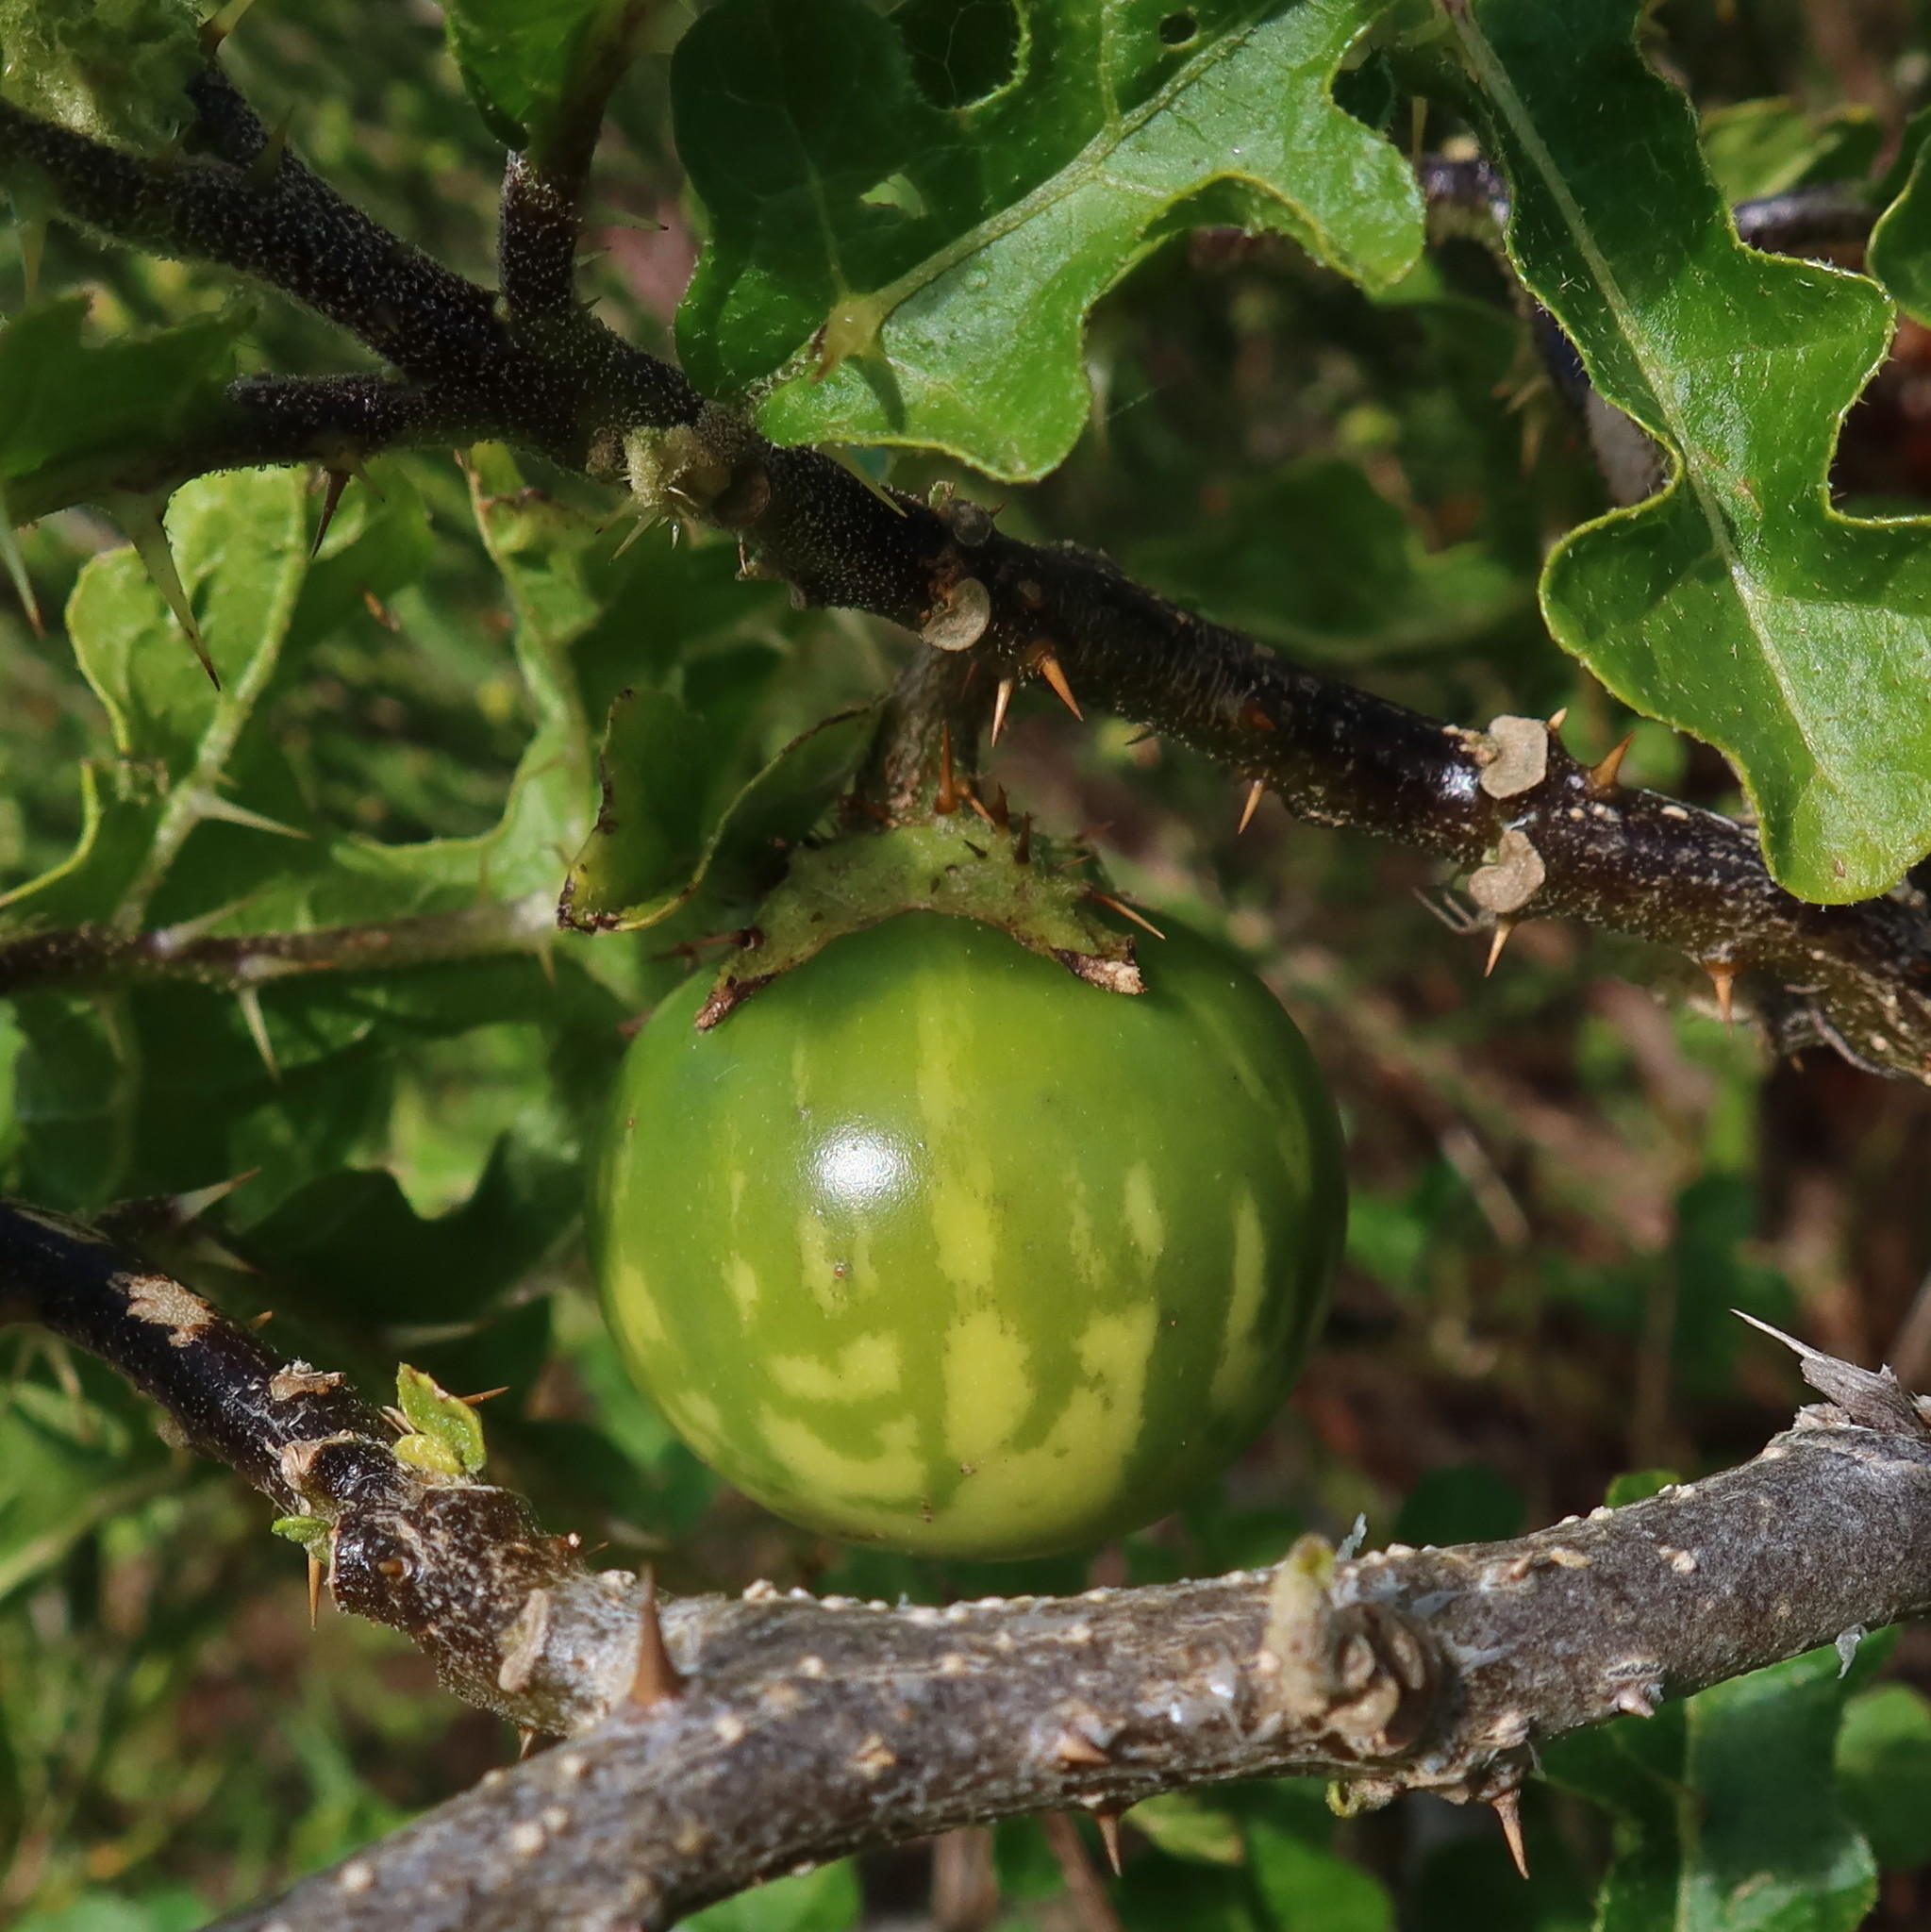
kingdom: Plantae
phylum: Tracheophyta
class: Magnoliopsida
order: Solanales
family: Solanaceae
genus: Solanum
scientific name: Solanum linnaeanum
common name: Nightshade
